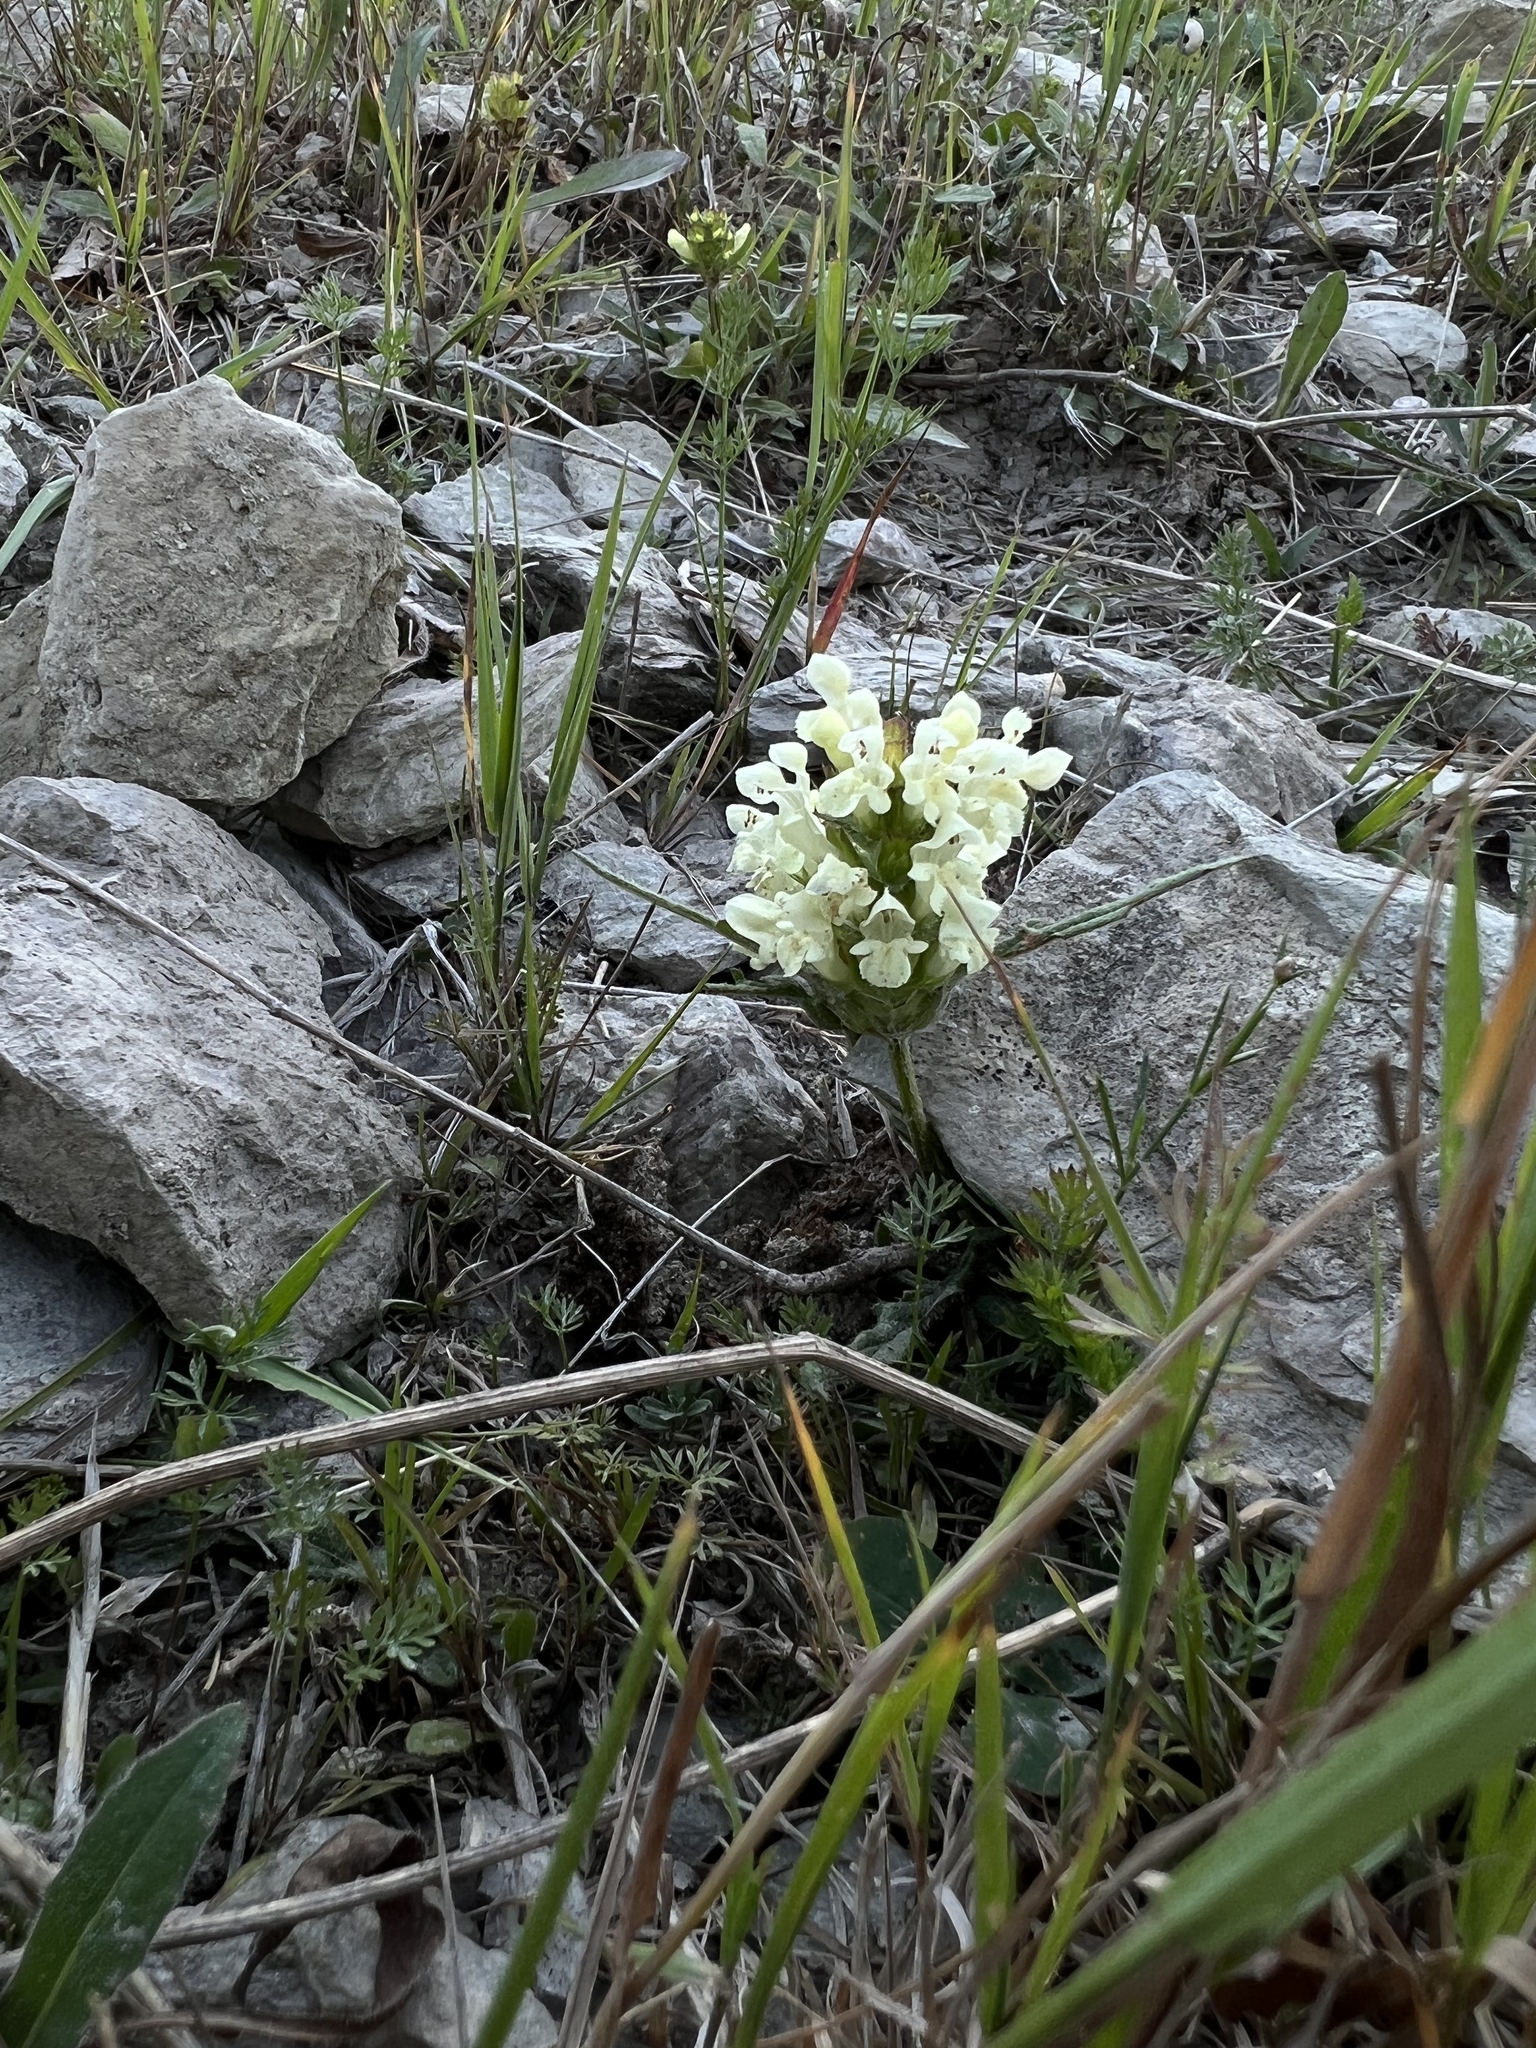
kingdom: Plantae
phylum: Tracheophyta
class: Magnoliopsida
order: Lamiales
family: Lamiaceae
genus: Prunella
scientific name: Prunella laciniata
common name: Cut-leaved selfheal
